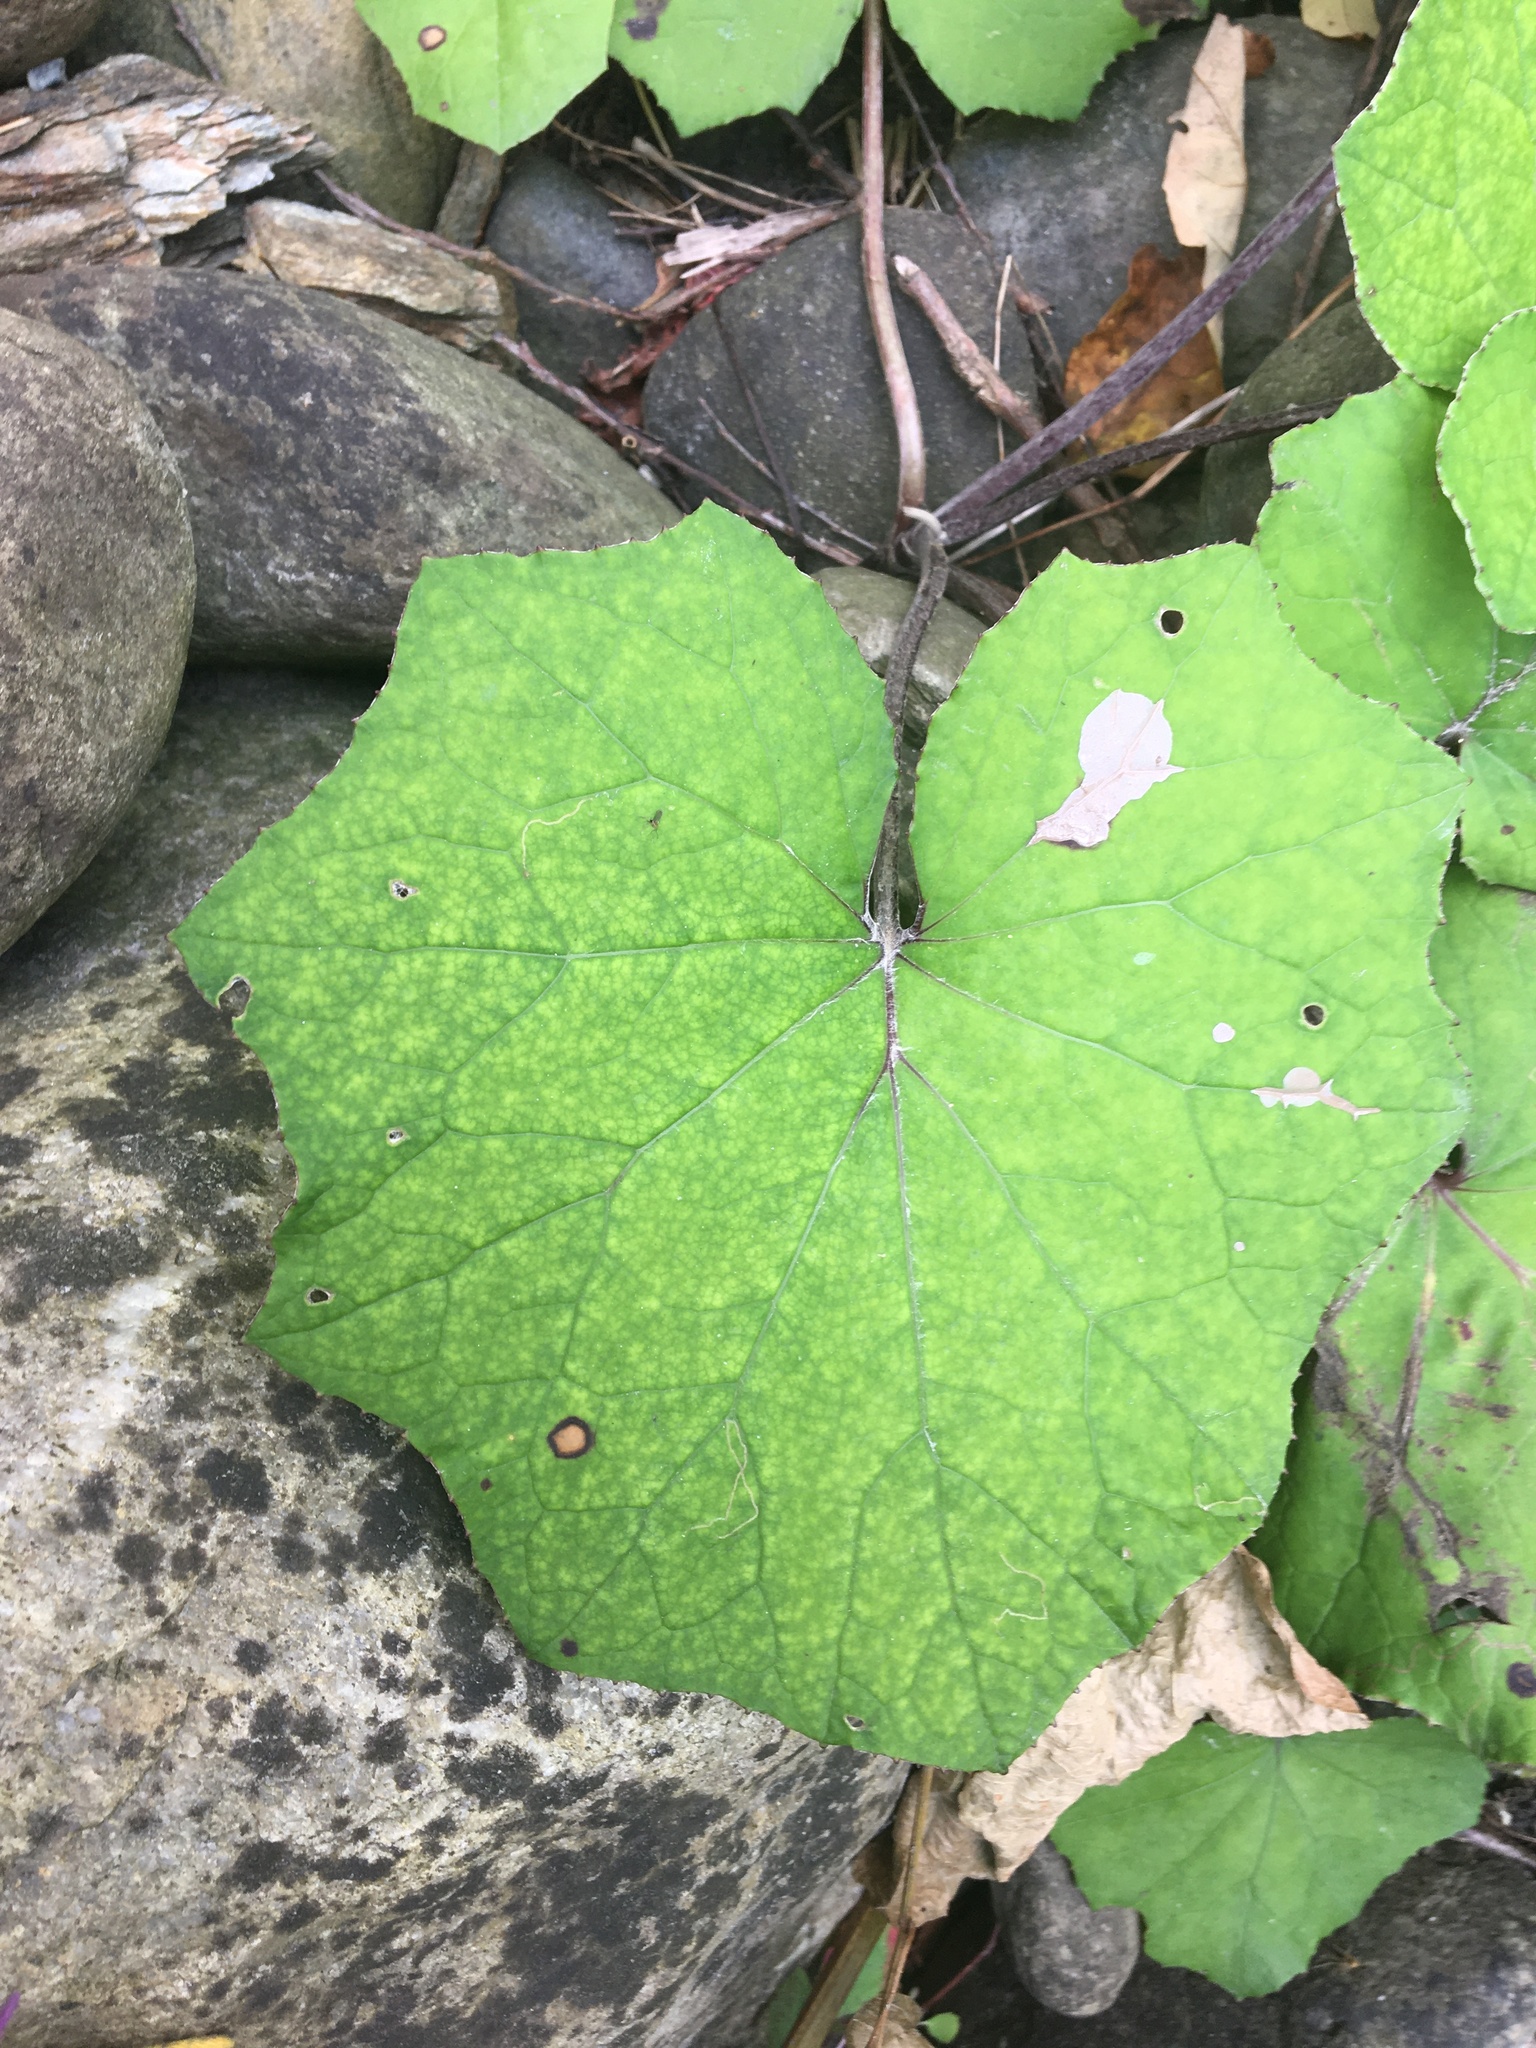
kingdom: Plantae
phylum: Tracheophyta
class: Magnoliopsida
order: Asterales
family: Asteraceae
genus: Tussilago
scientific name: Tussilago farfara
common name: Coltsfoot
